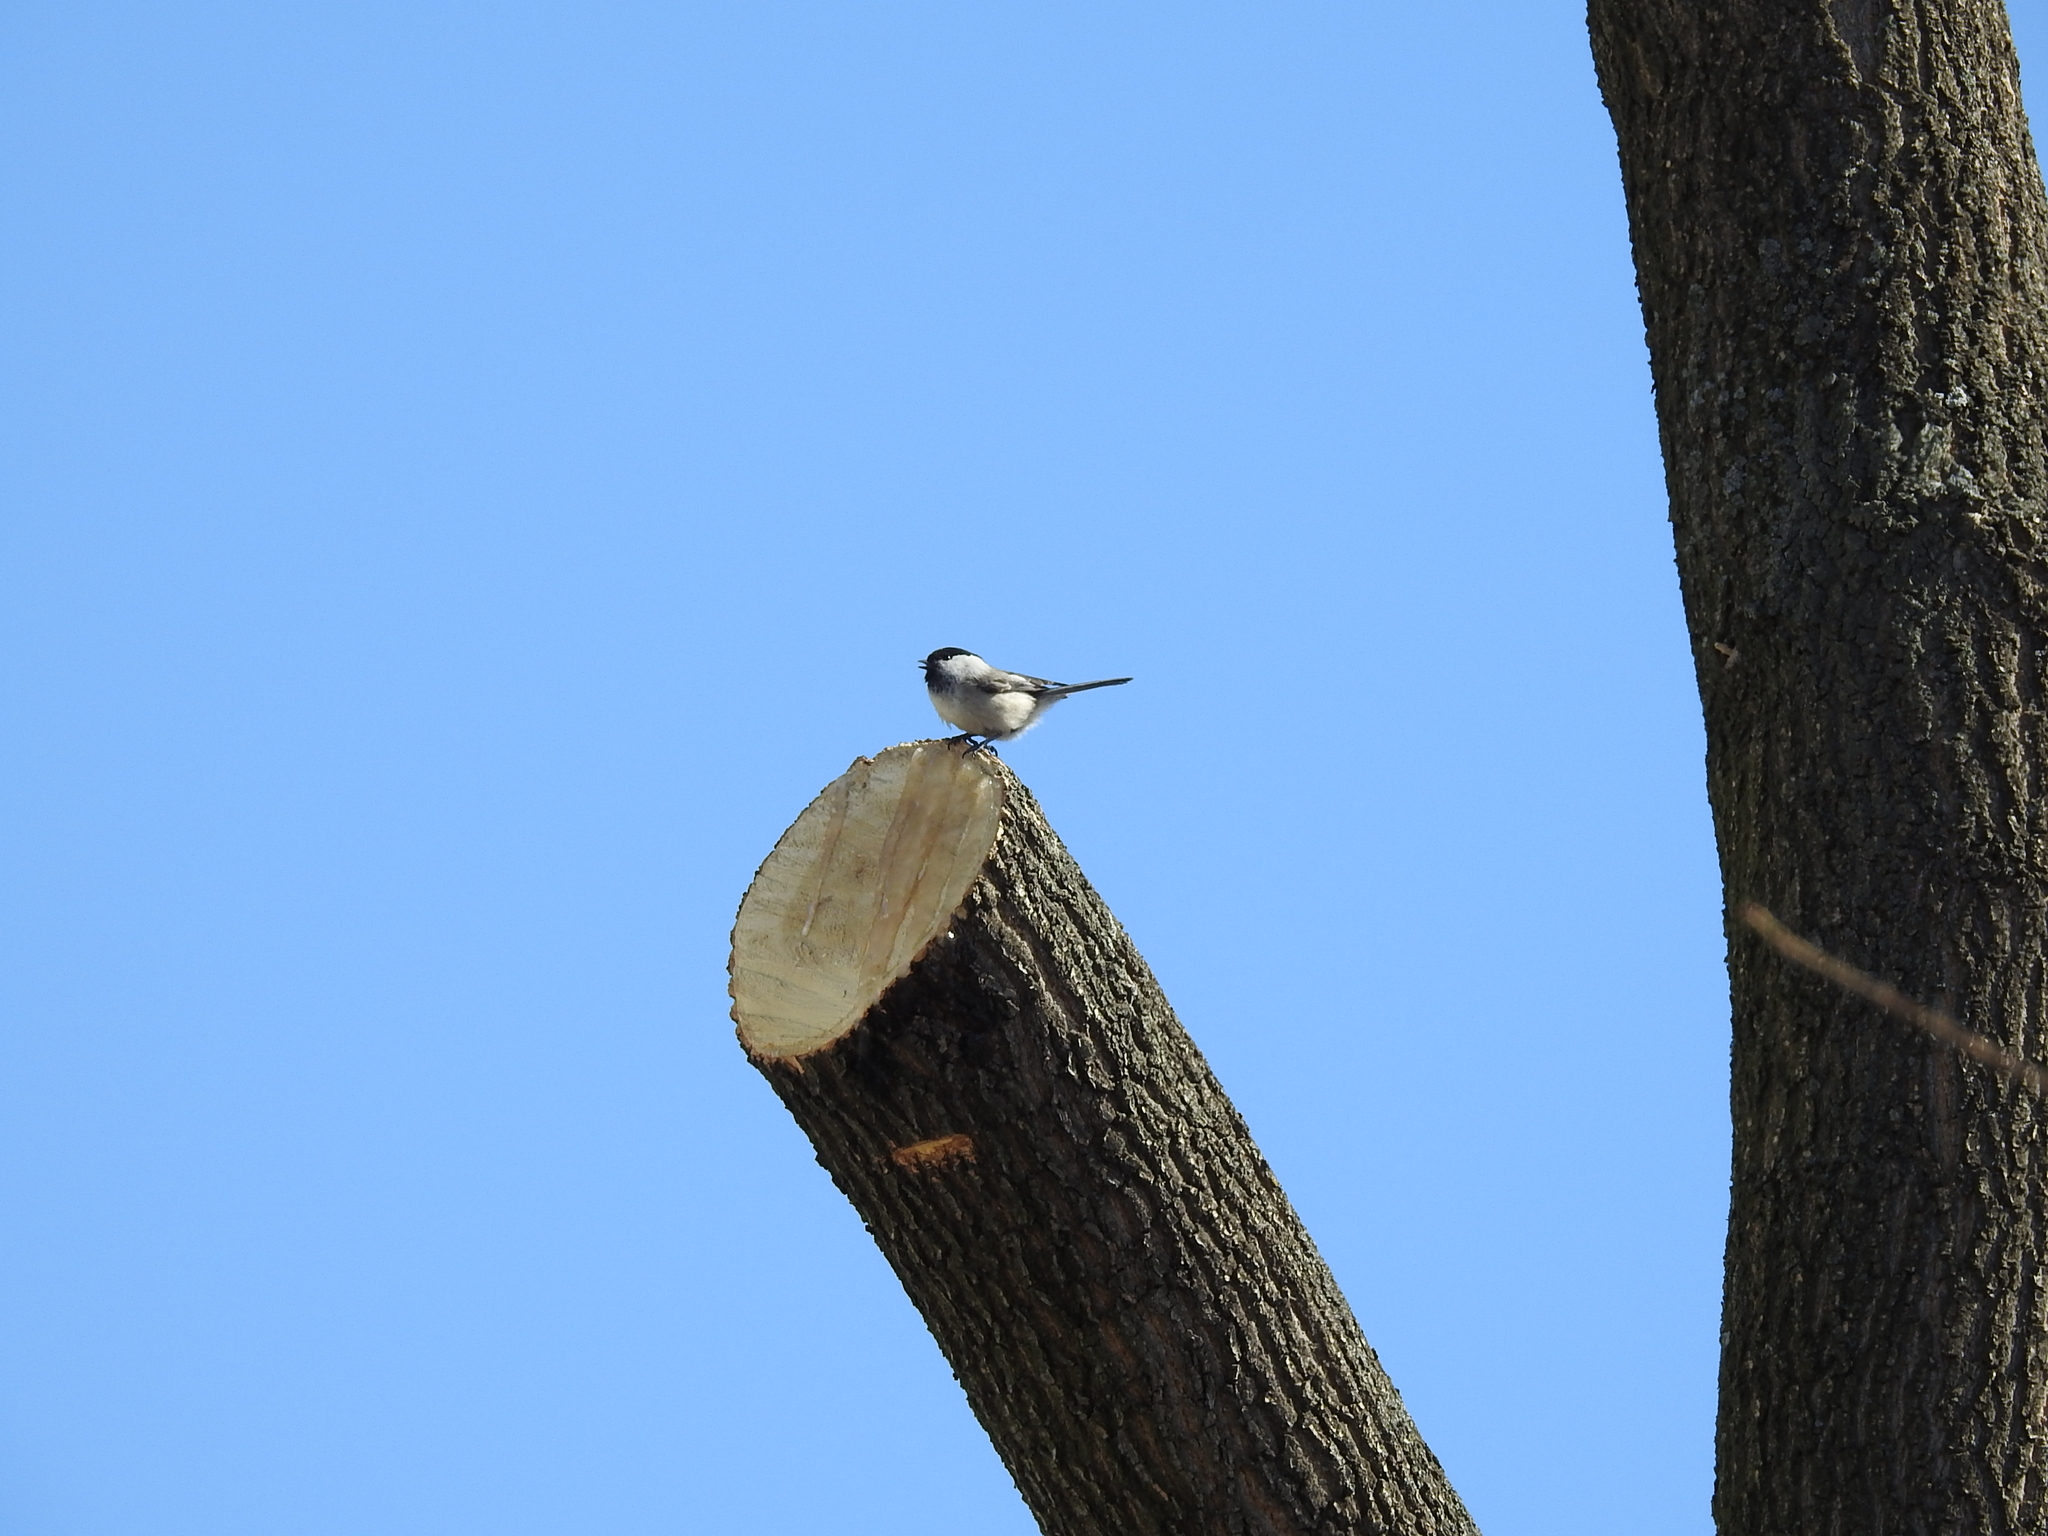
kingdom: Animalia
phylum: Chordata
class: Aves
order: Passeriformes
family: Paridae
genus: Poecile
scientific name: Poecile montanus
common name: Willow tit
